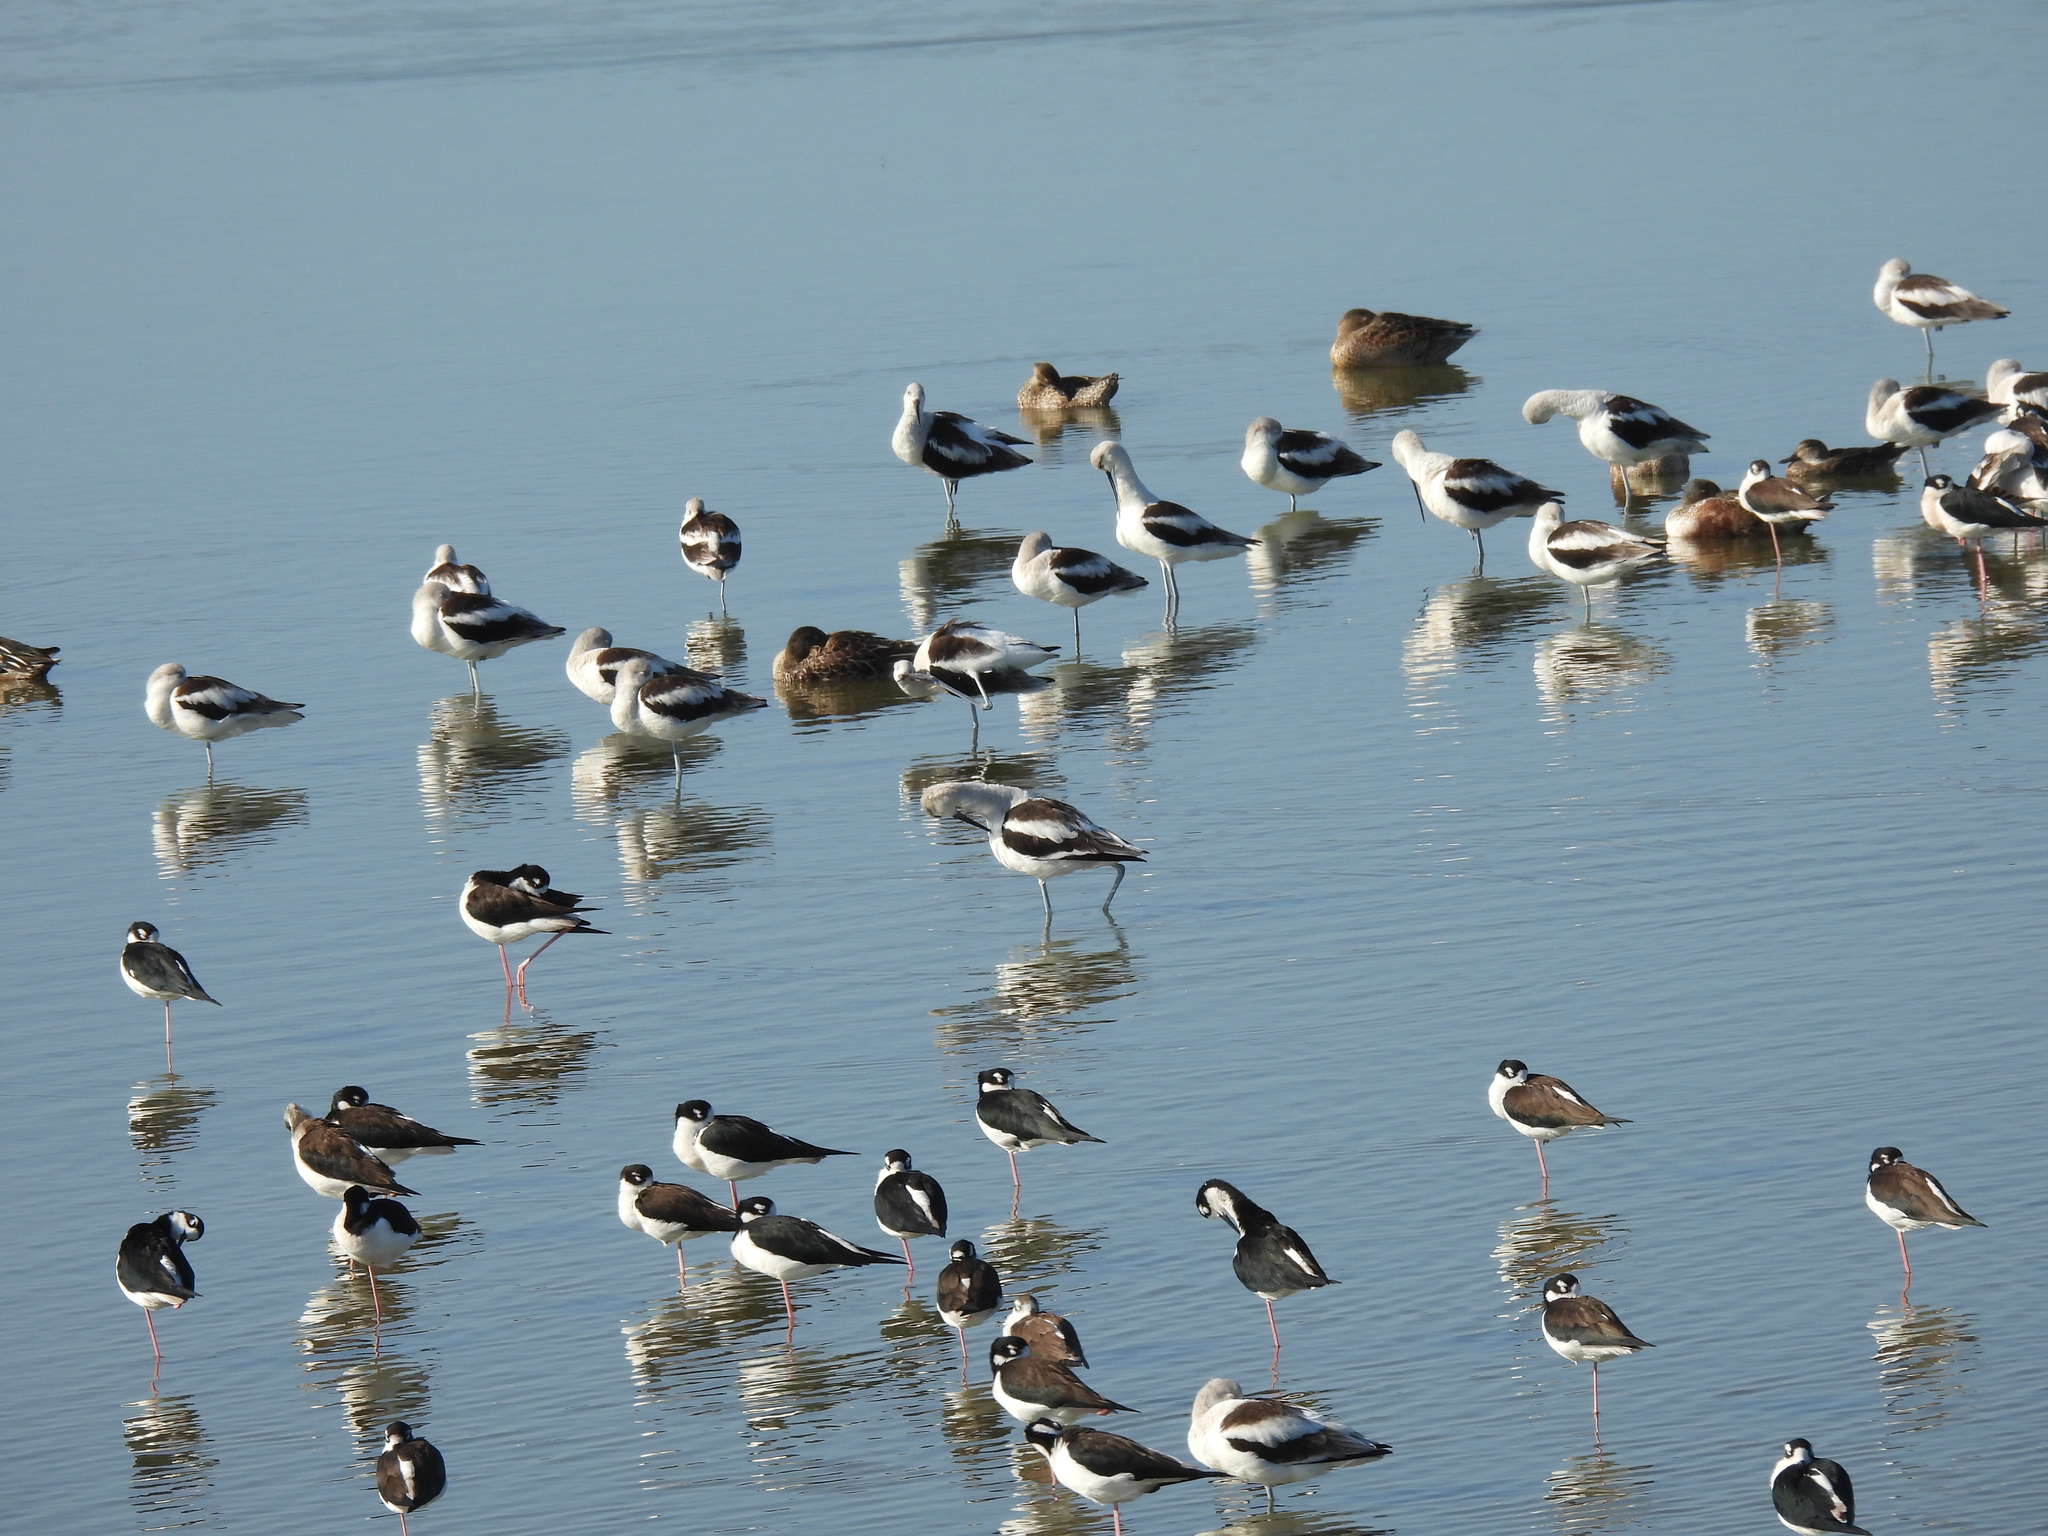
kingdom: Animalia
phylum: Chordata
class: Aves
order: Charadriiformes
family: Recurvirostridae
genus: Recurvirostra
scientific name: Recurvirostra americana
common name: American avocet
